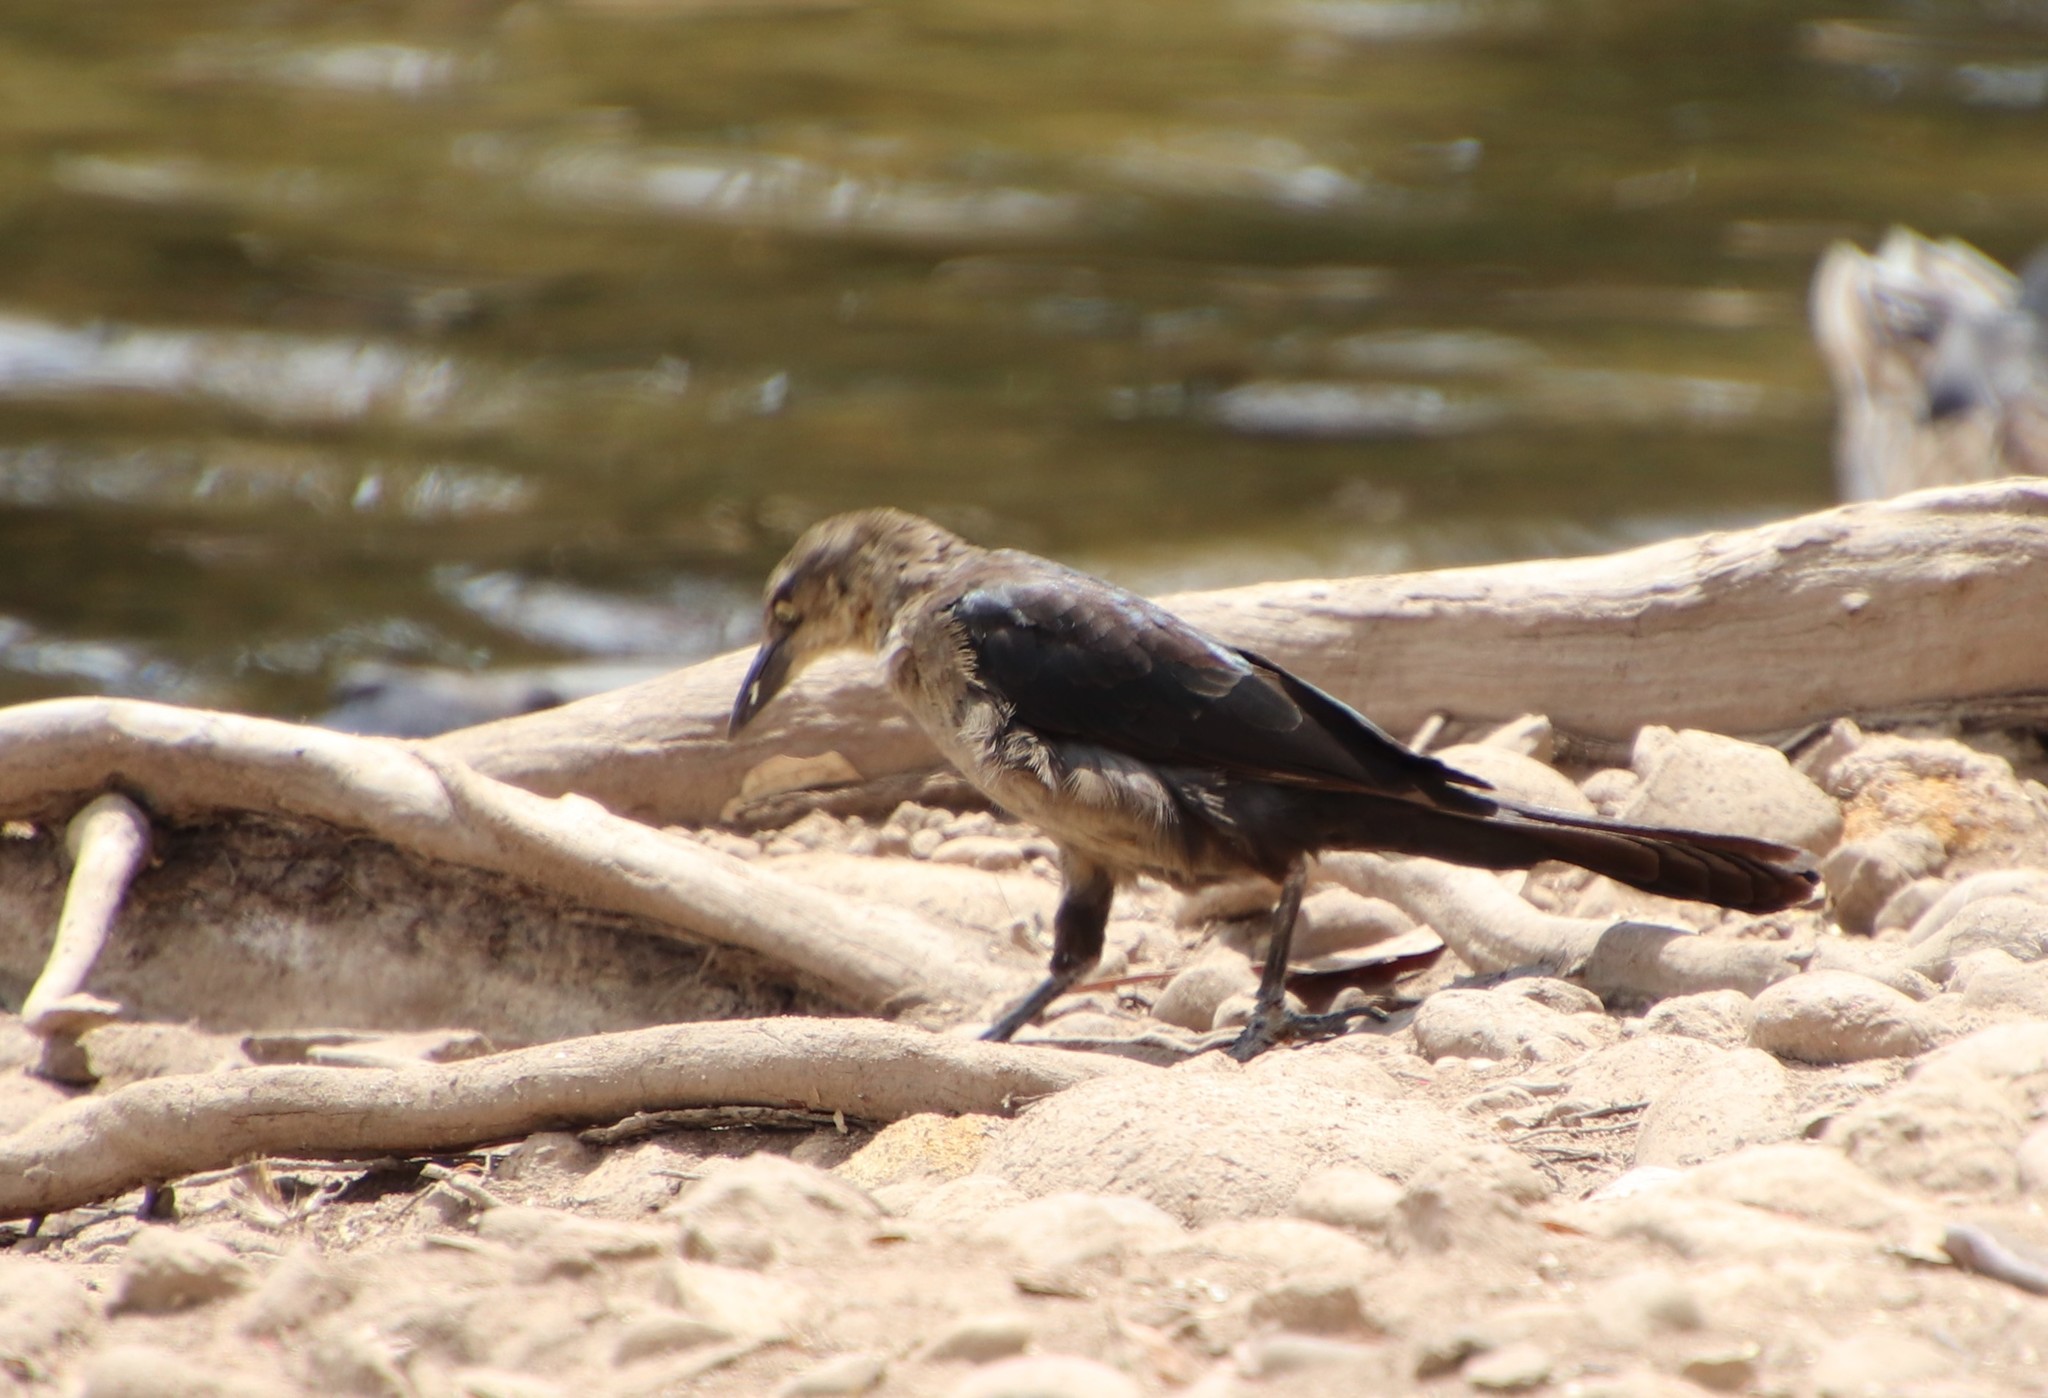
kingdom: Animalia
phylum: Chordata
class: Aves
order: Passeriformes
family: Icteridae
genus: Quiscalus
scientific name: Quiscalus mexicanus
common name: Great-tailed grackle
